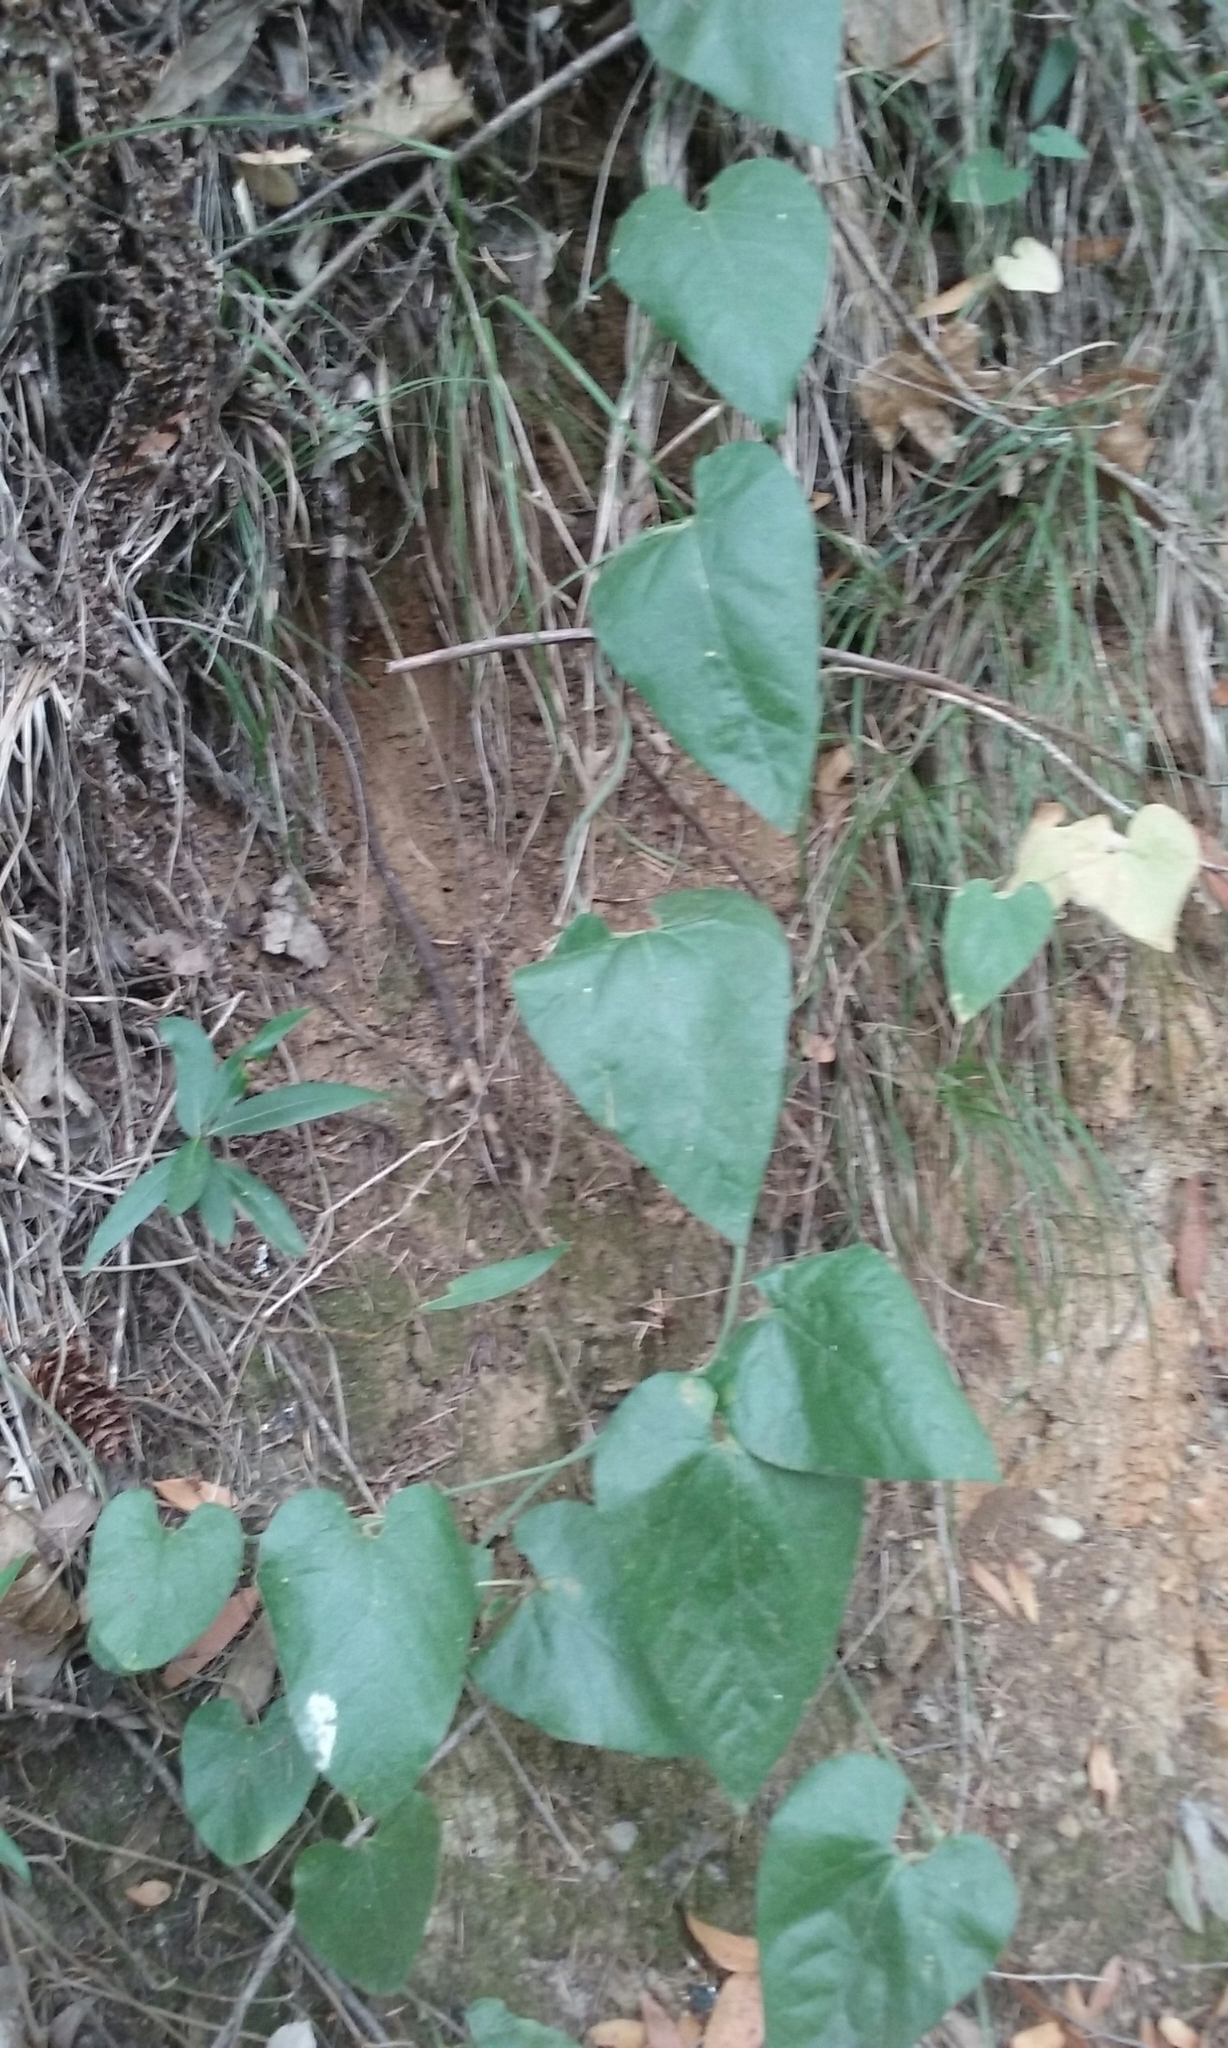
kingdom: Plantae
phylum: Tracheophyta
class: Magnoliopsida
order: Piperales
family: Aristolochiaceae
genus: Isotrema
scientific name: Isotrema californicum
